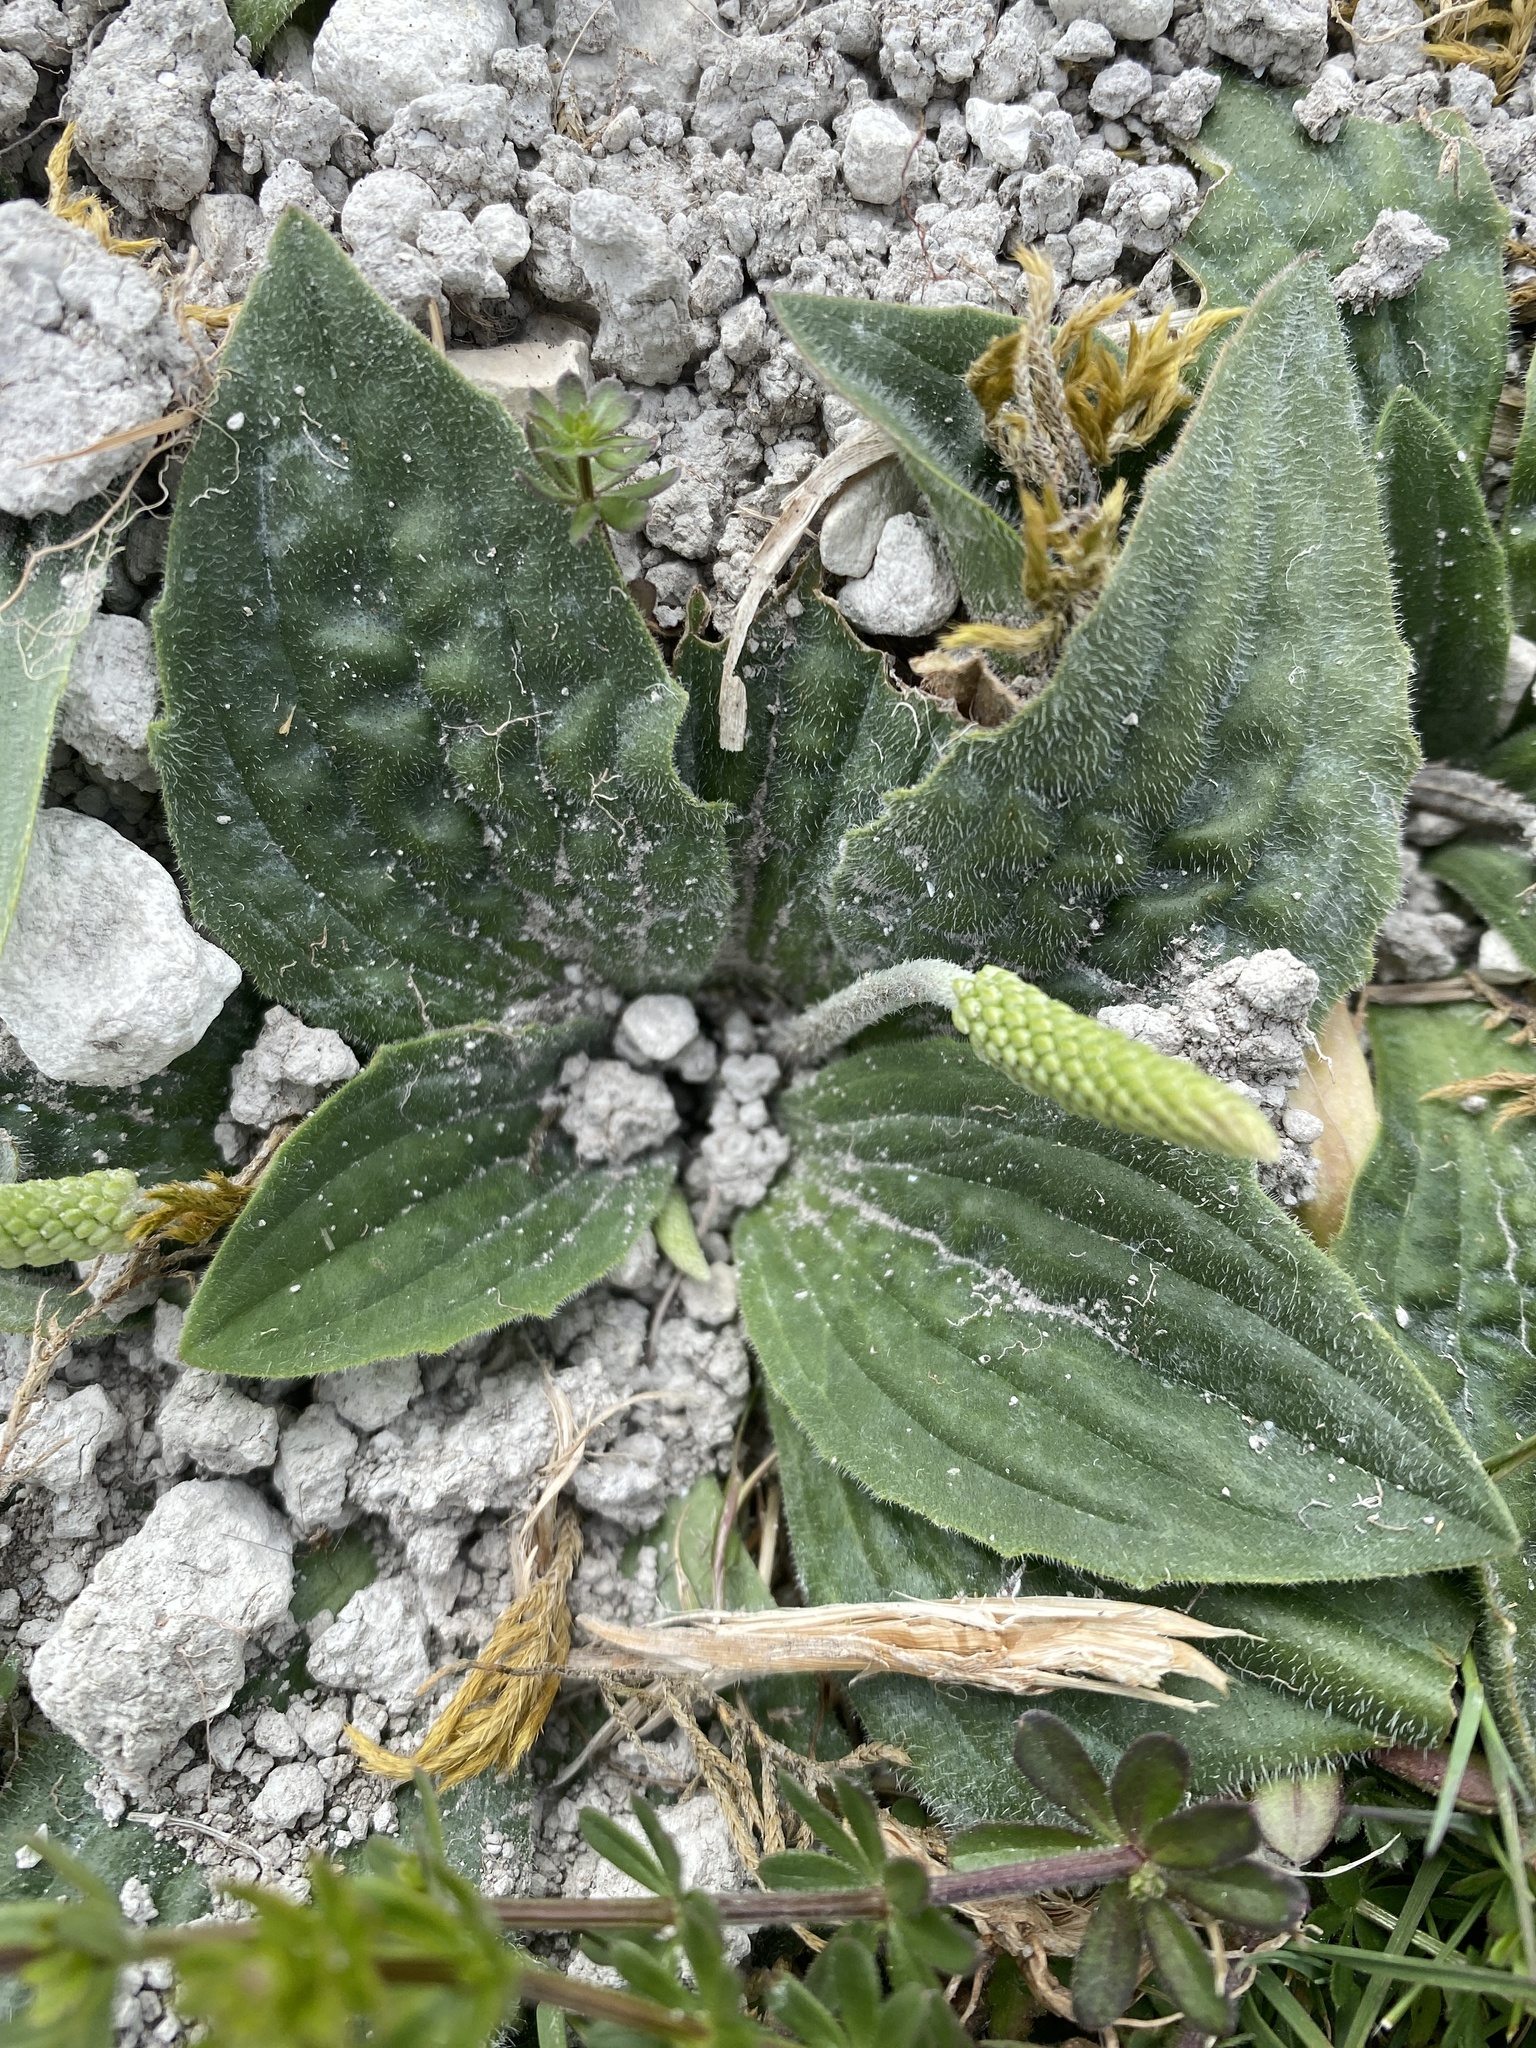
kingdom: Plantae
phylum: Tracheophyta
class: Magnoliopsida
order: Lamiales
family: Plantaginaceae
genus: Plantago
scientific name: Plantago media
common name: Hoary plantain
